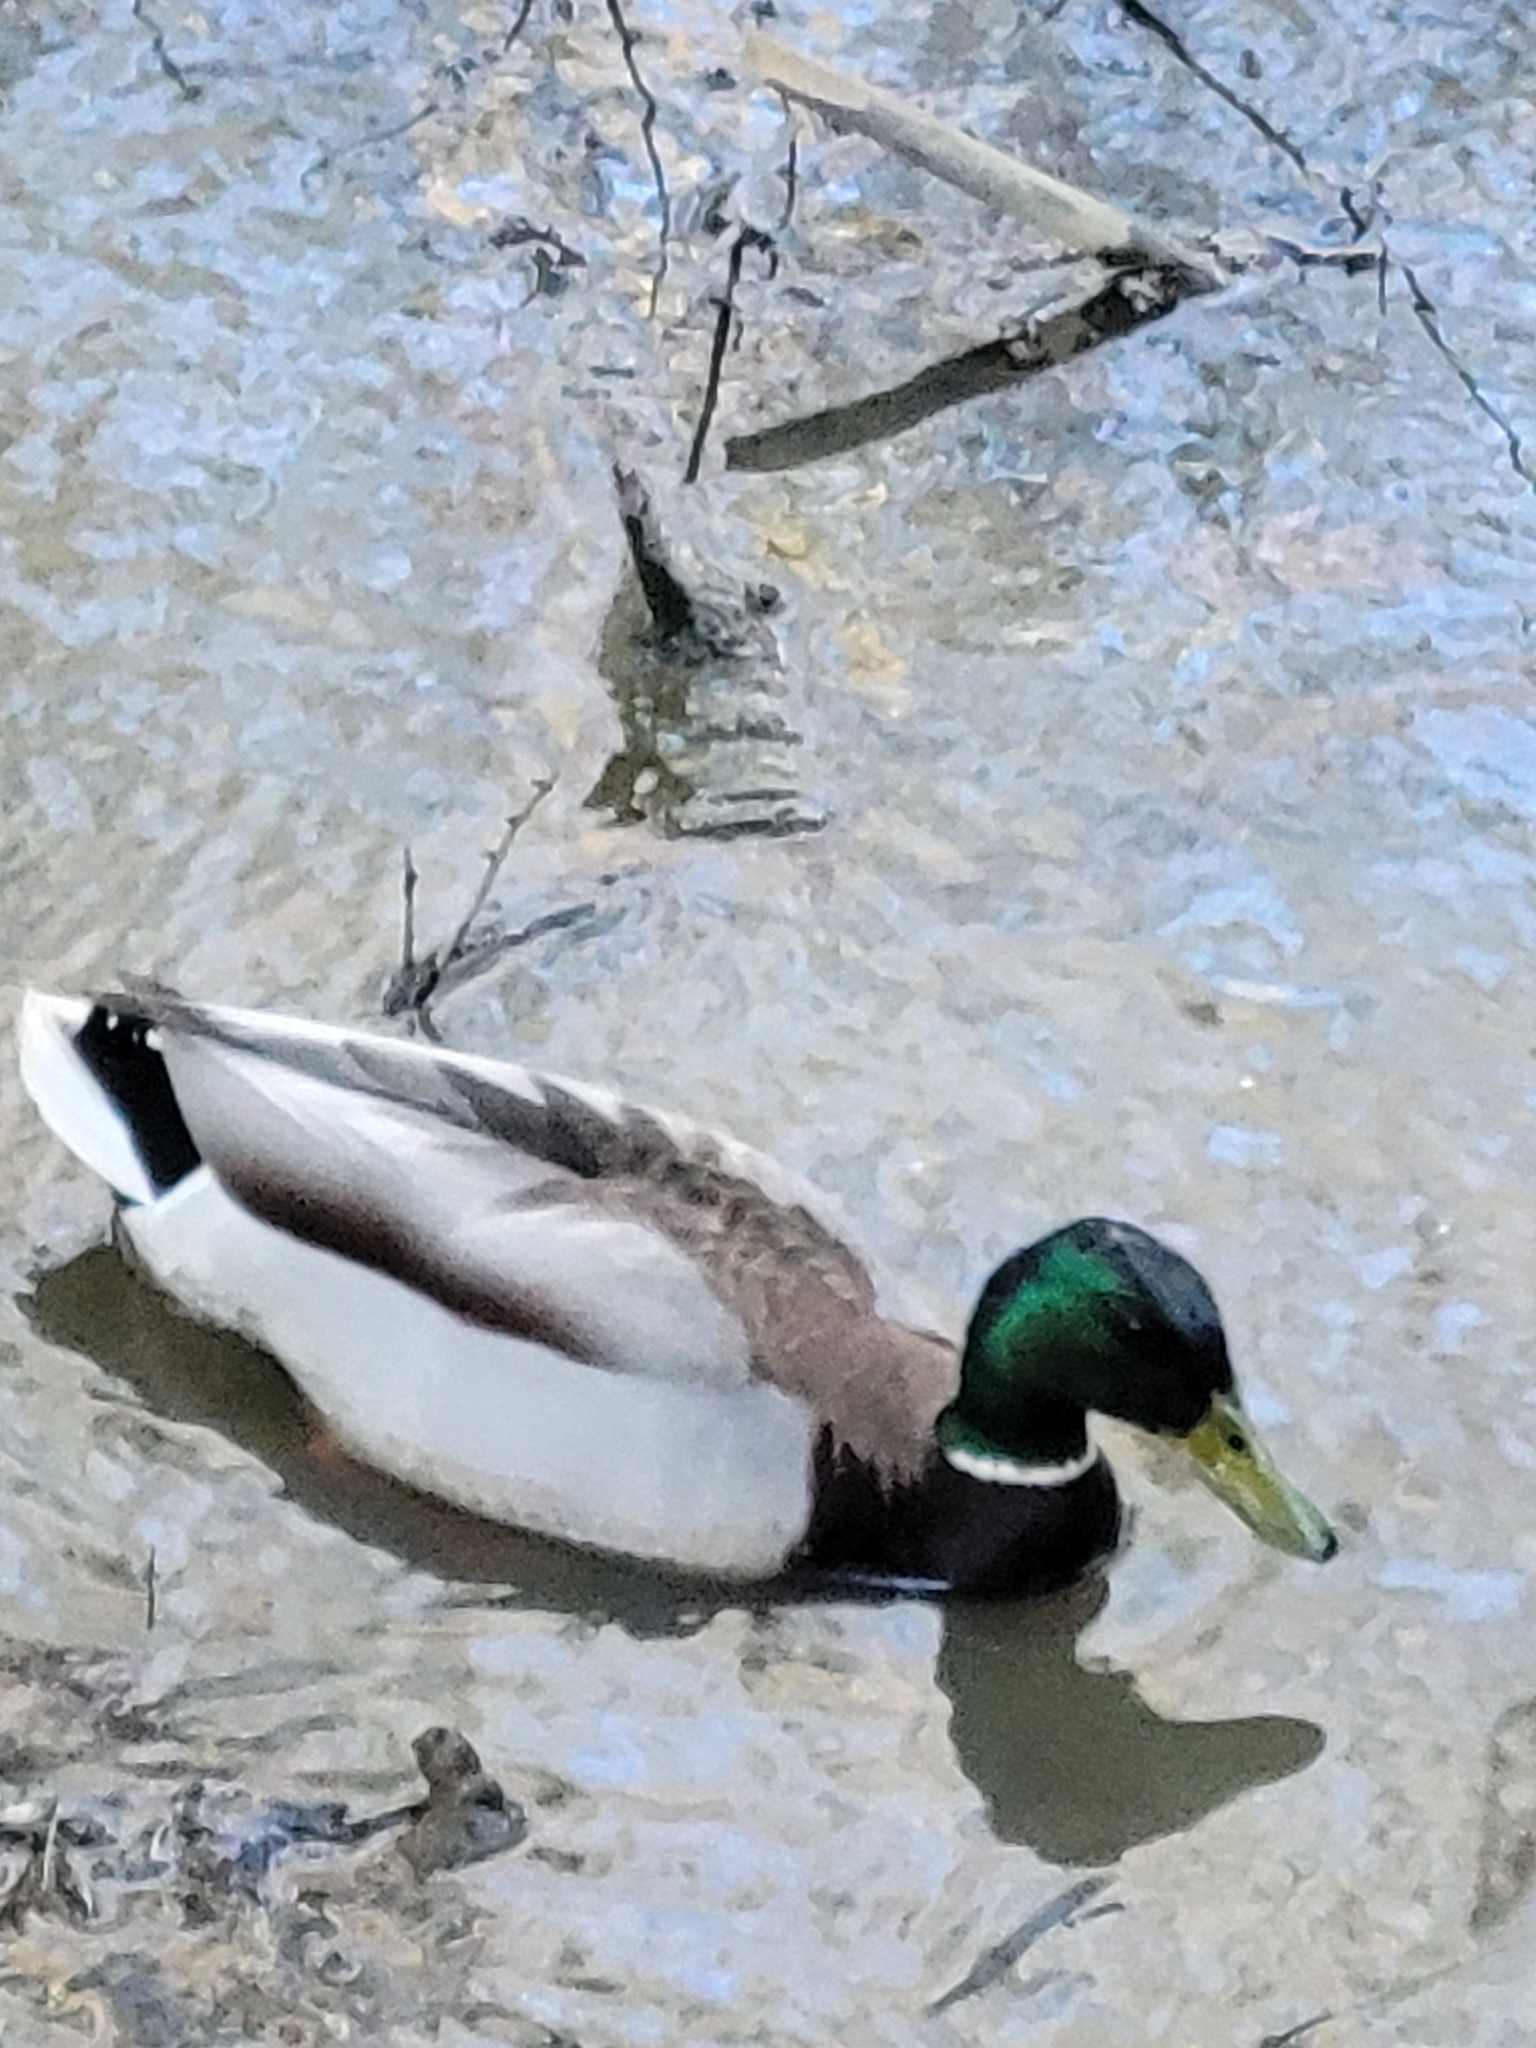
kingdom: Animalia
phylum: Chordata
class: Aves
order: Anseriformes
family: Anatidae
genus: Anas
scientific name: Anas platyrhynchos
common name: Mallard
